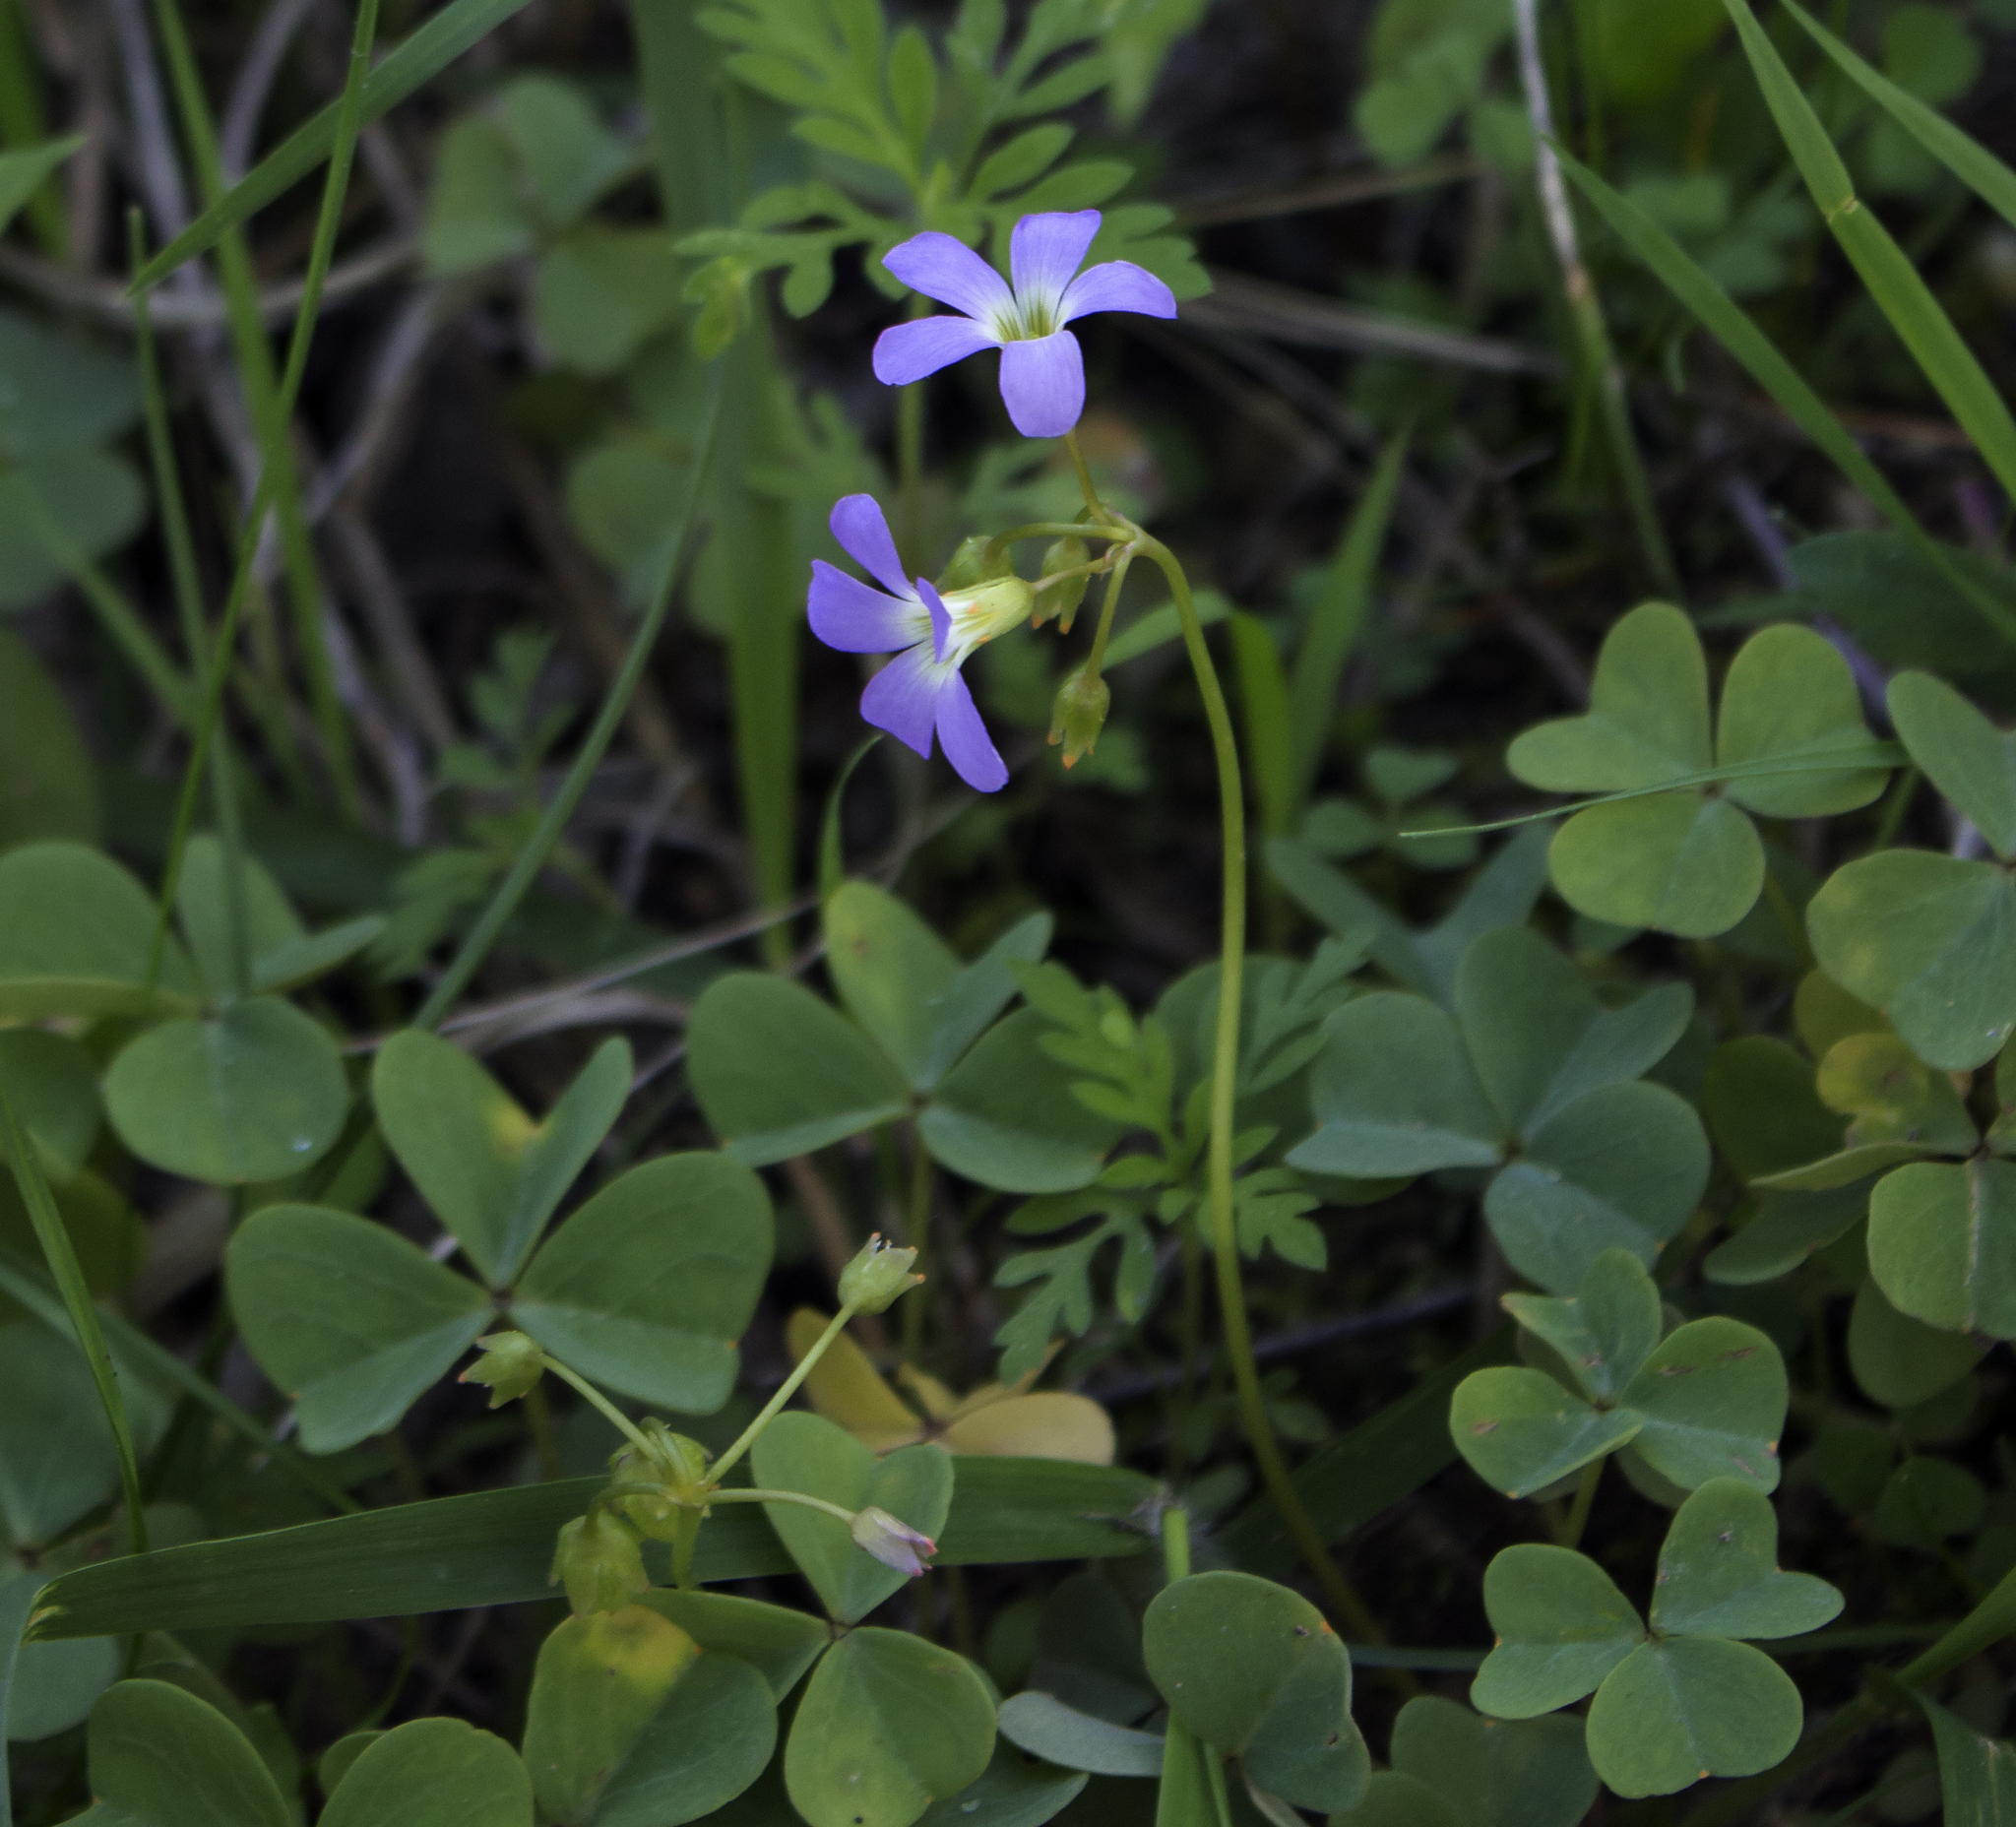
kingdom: Plantae
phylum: Tracheophyta
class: Magnoliopsida
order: Oxalidales
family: Oxalidaceae
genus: Oxalis
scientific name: Oxalis violacea
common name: Violet wood-sorrel
